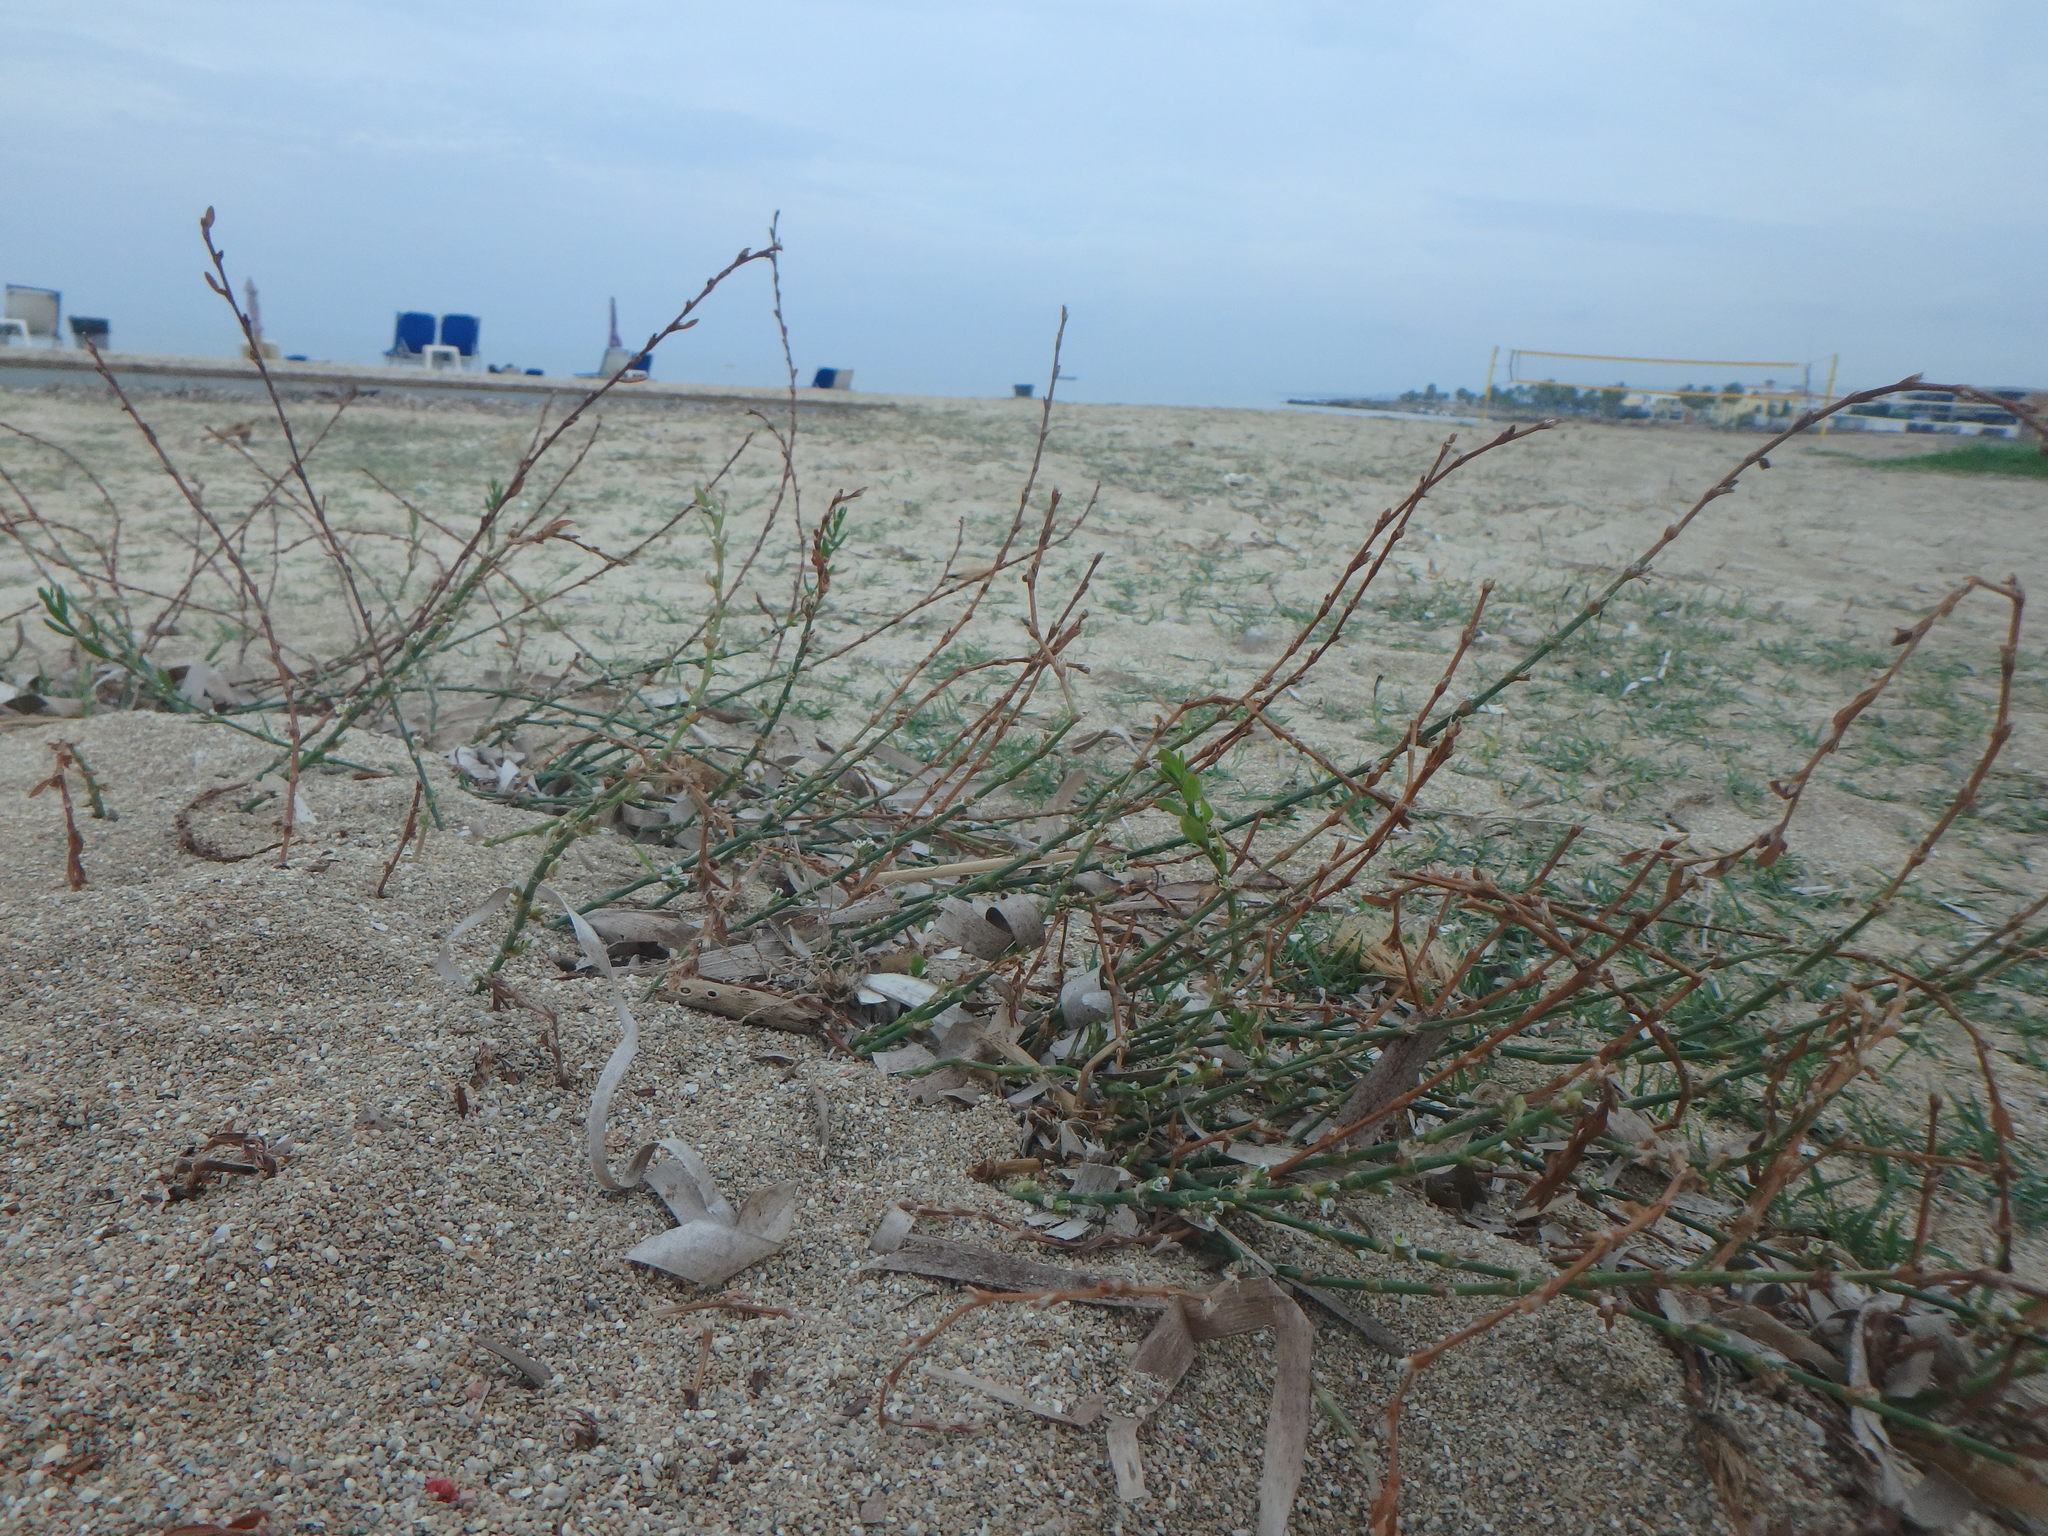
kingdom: Plantae
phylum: Tracheophyta
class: Magnoliopsida
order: Caryophyllales
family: Polygonaceae
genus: Polygonum
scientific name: Polygonum equisetiforme
